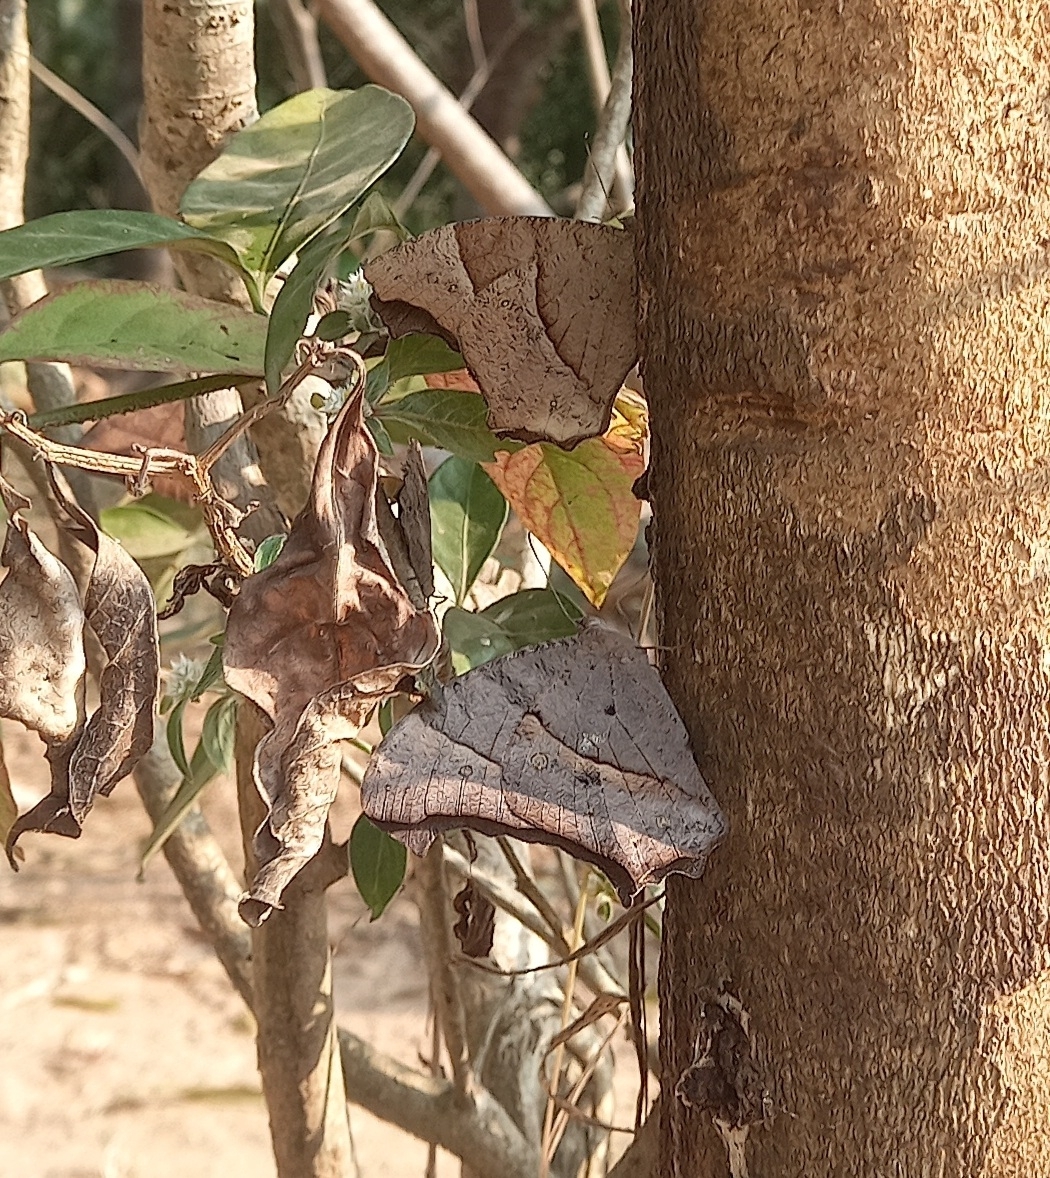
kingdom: Animalia
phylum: Arthropoda
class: Insecta
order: Lepidoptera
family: Nymphalidae
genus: Melanitis
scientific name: Melanitis leda
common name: Twilight brown
